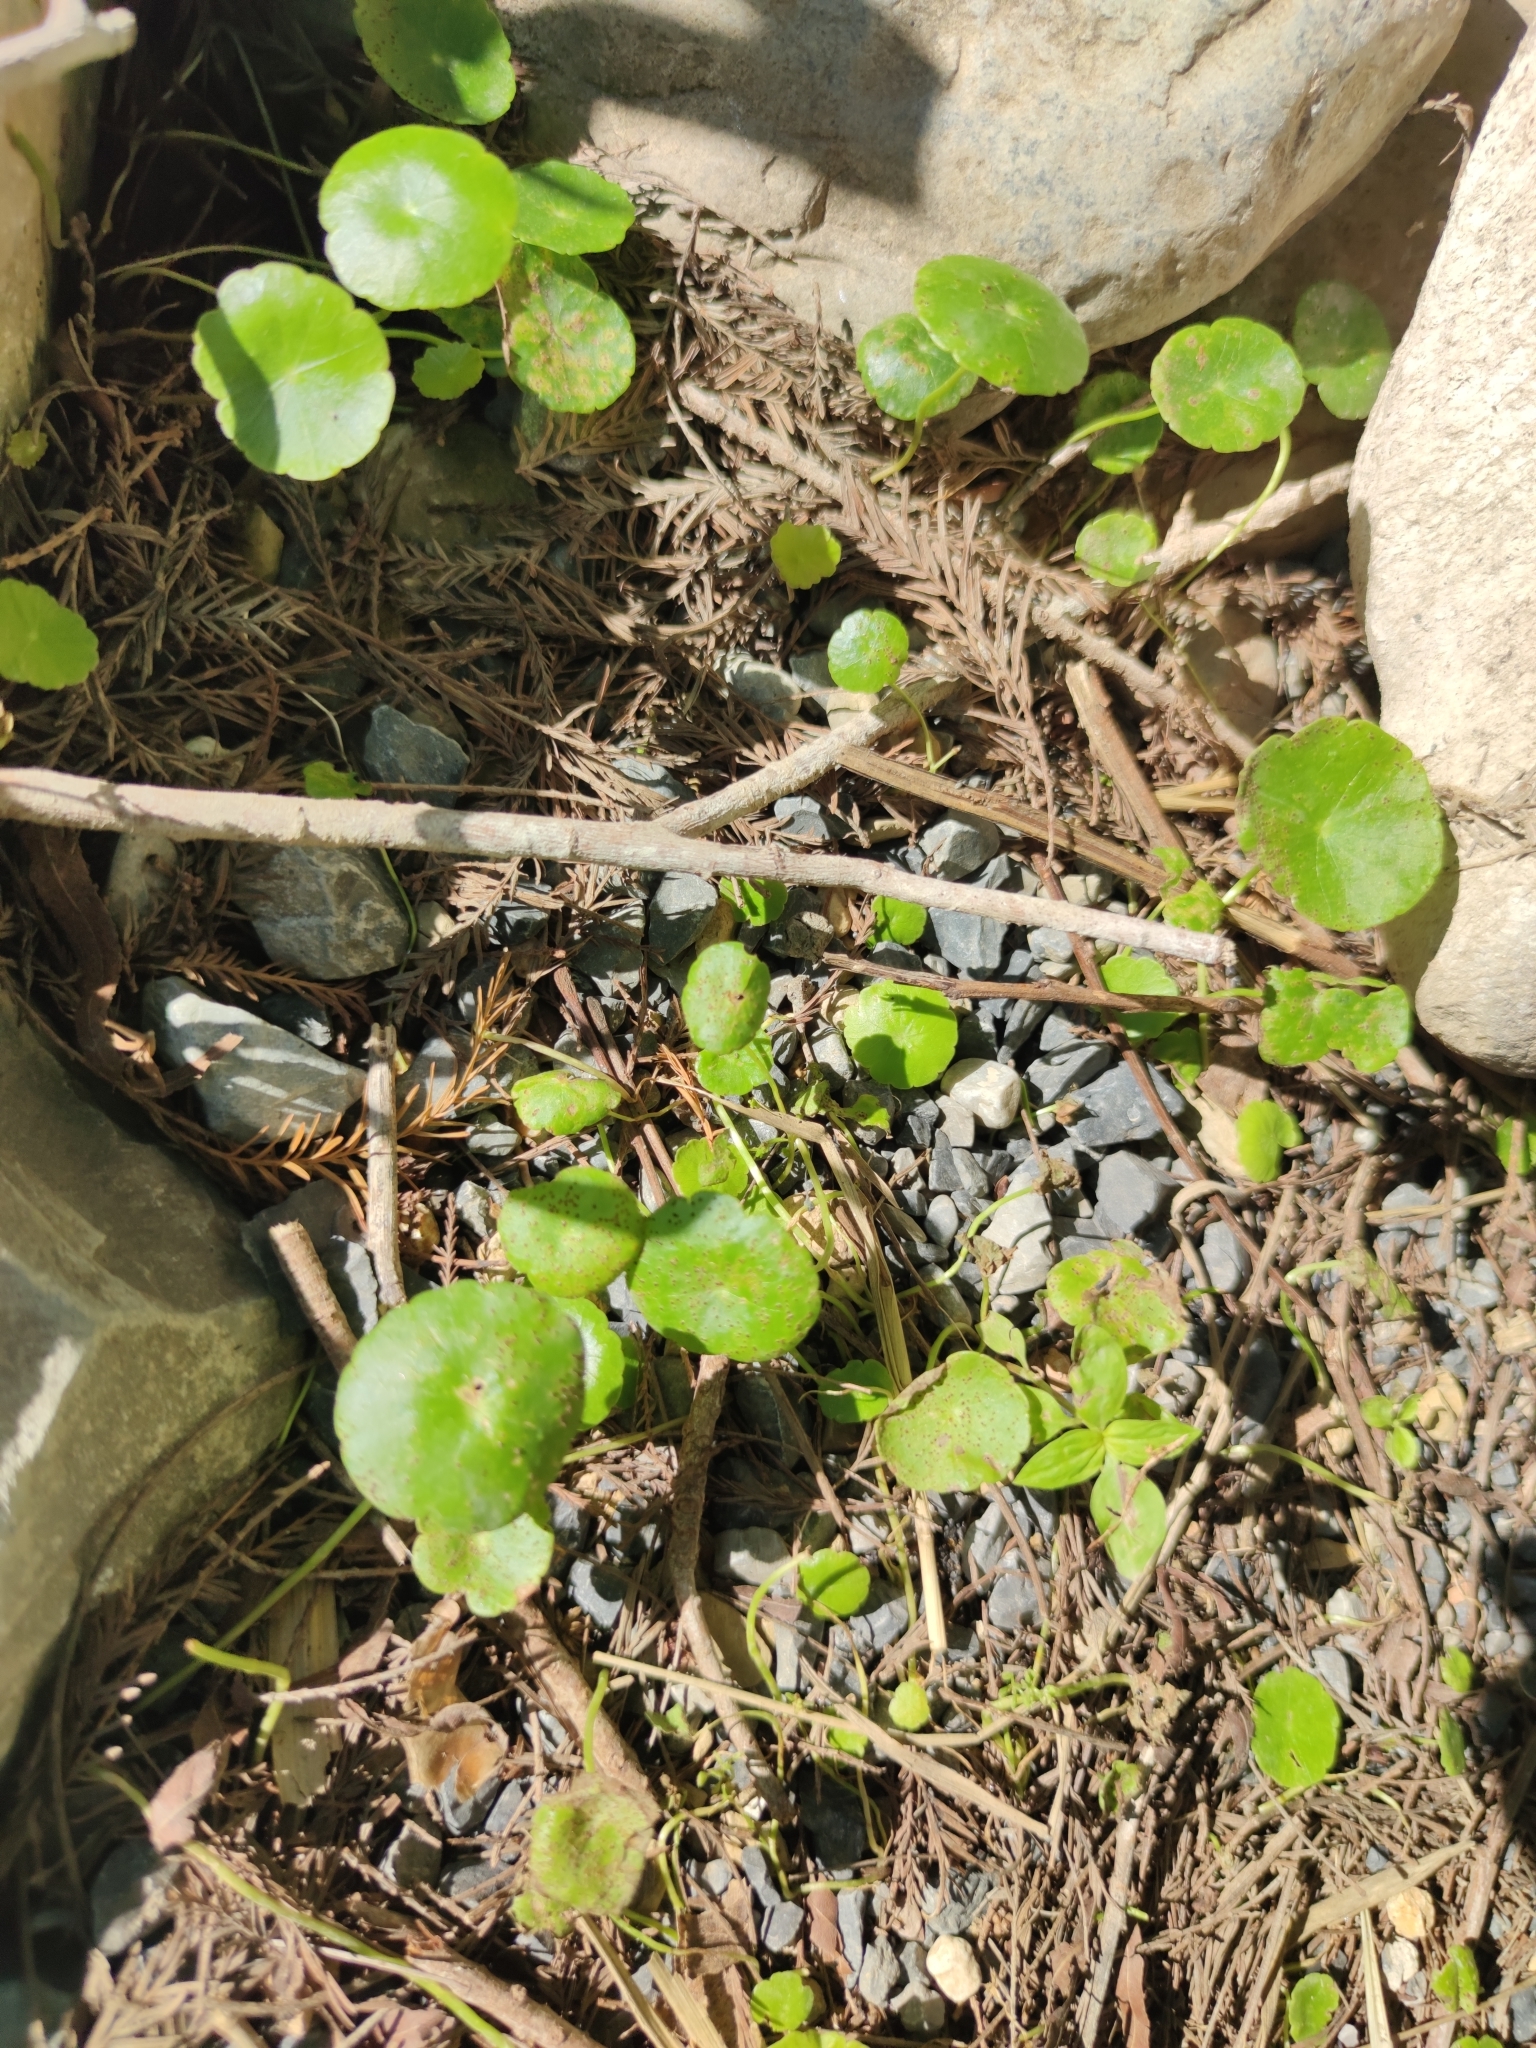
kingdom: Plantae
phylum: Tracheophyta
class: Magnoliopsida
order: Apiales
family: Araliaceae
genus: Hydrocotyle
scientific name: Hydrocotyle verticillata
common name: Whorled marshpennywort
